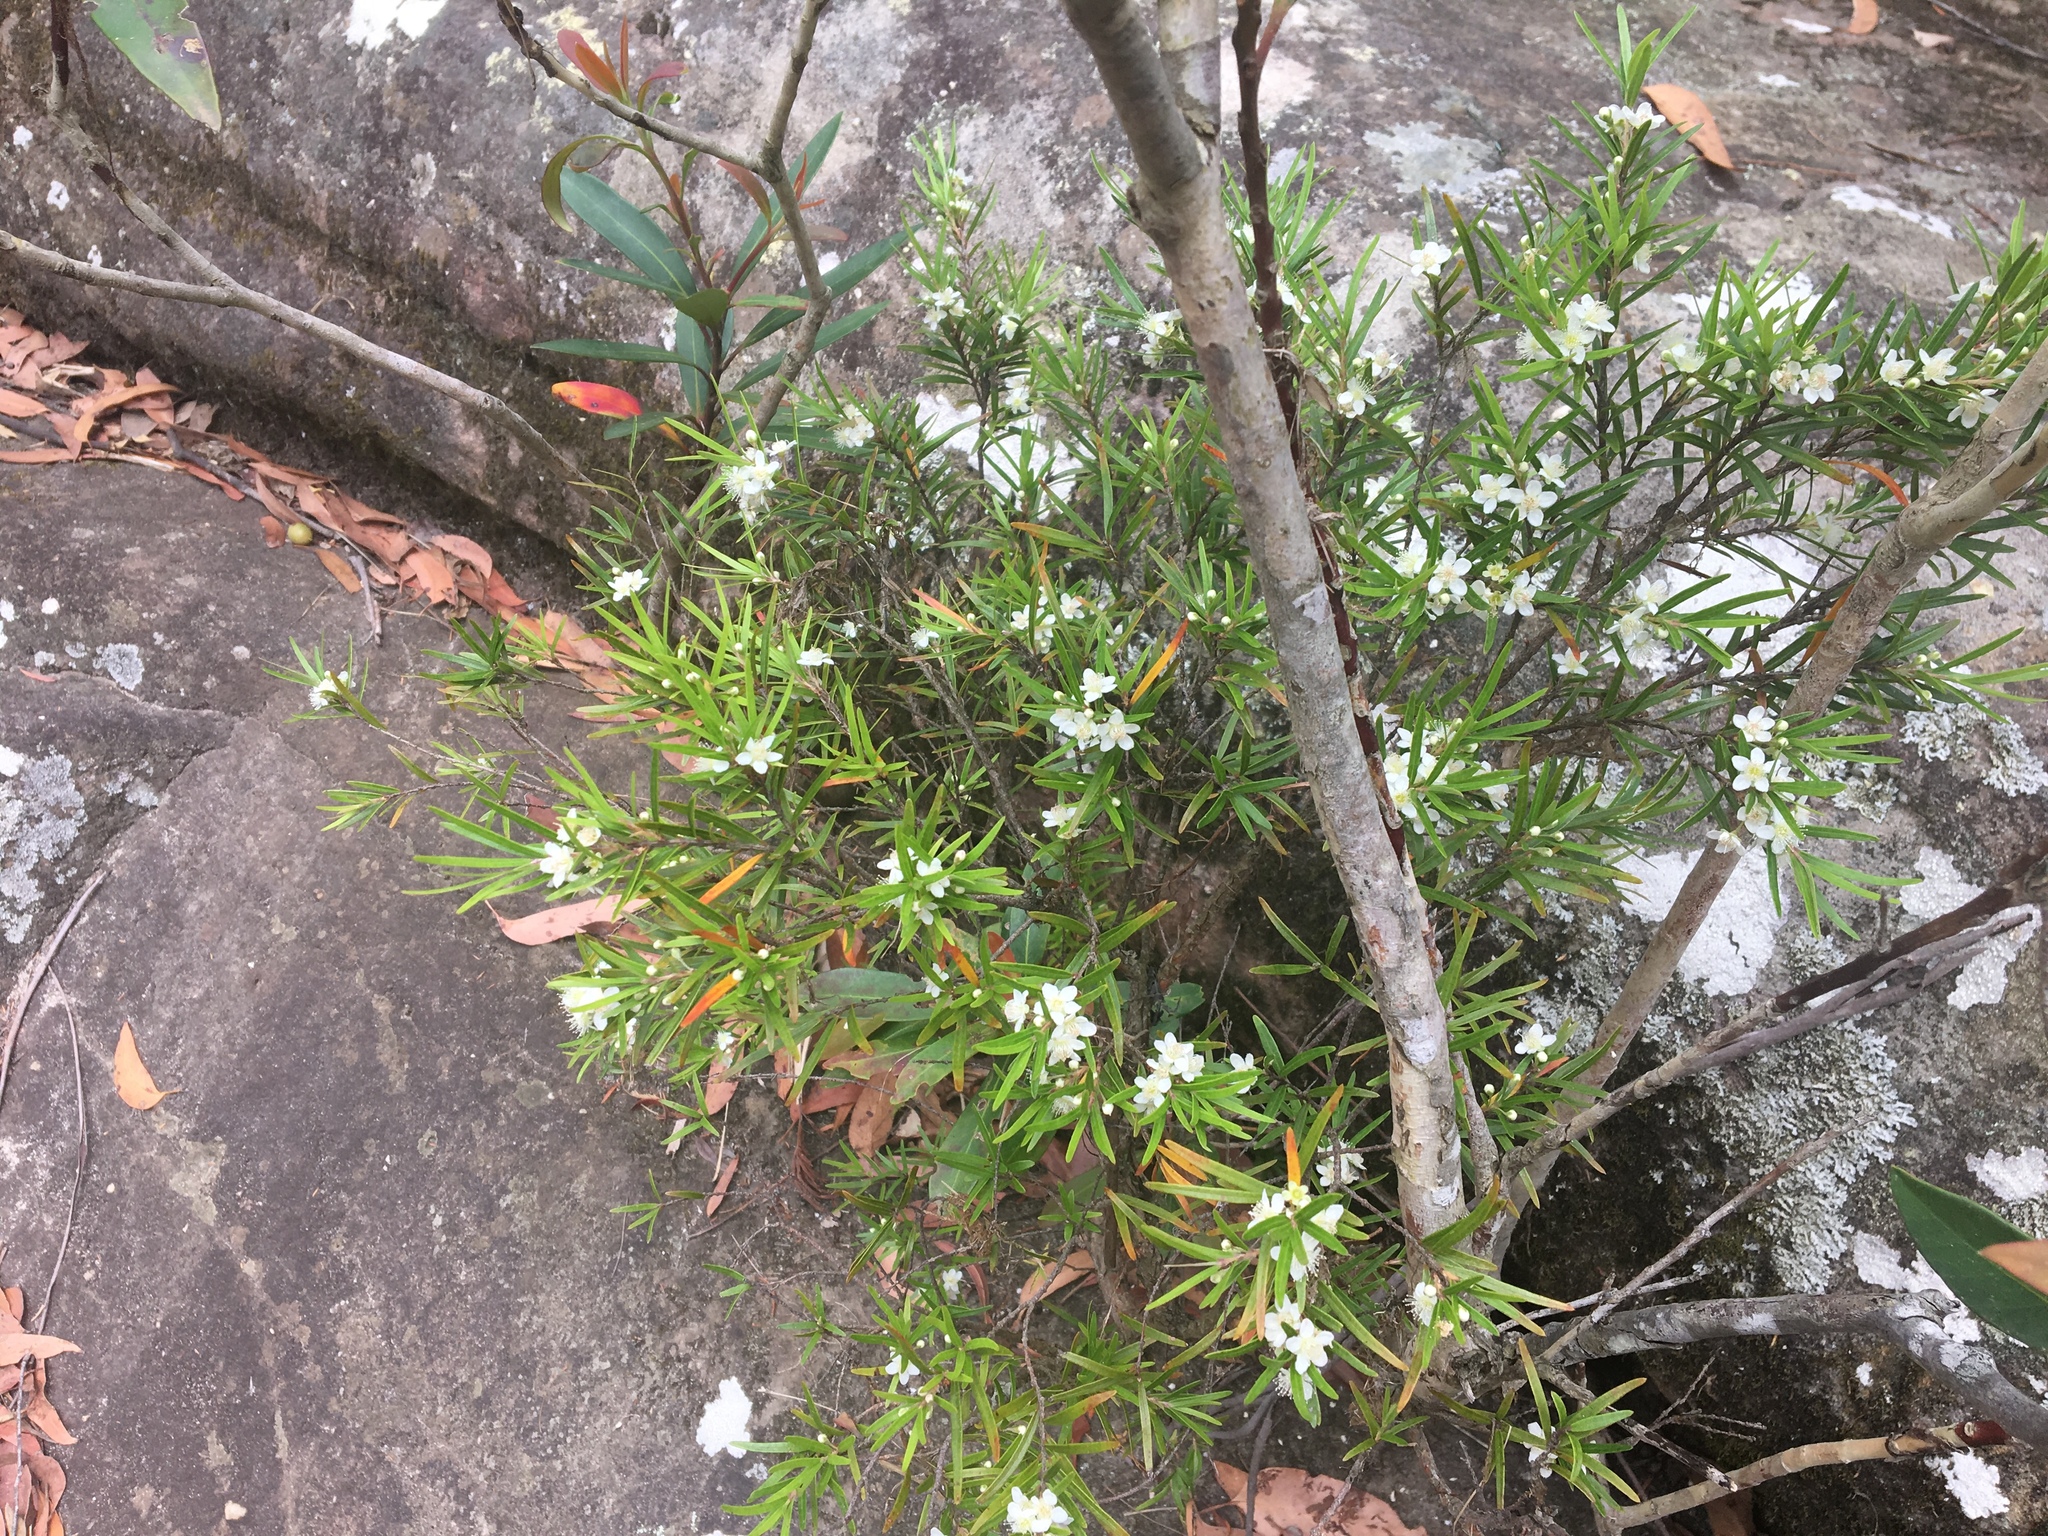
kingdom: Plantae
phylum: Tracheophyta
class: Magnoliopsida
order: Myrtales
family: Myrtaceae
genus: Austromyrtus
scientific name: Austromyrtus tenuifolia
